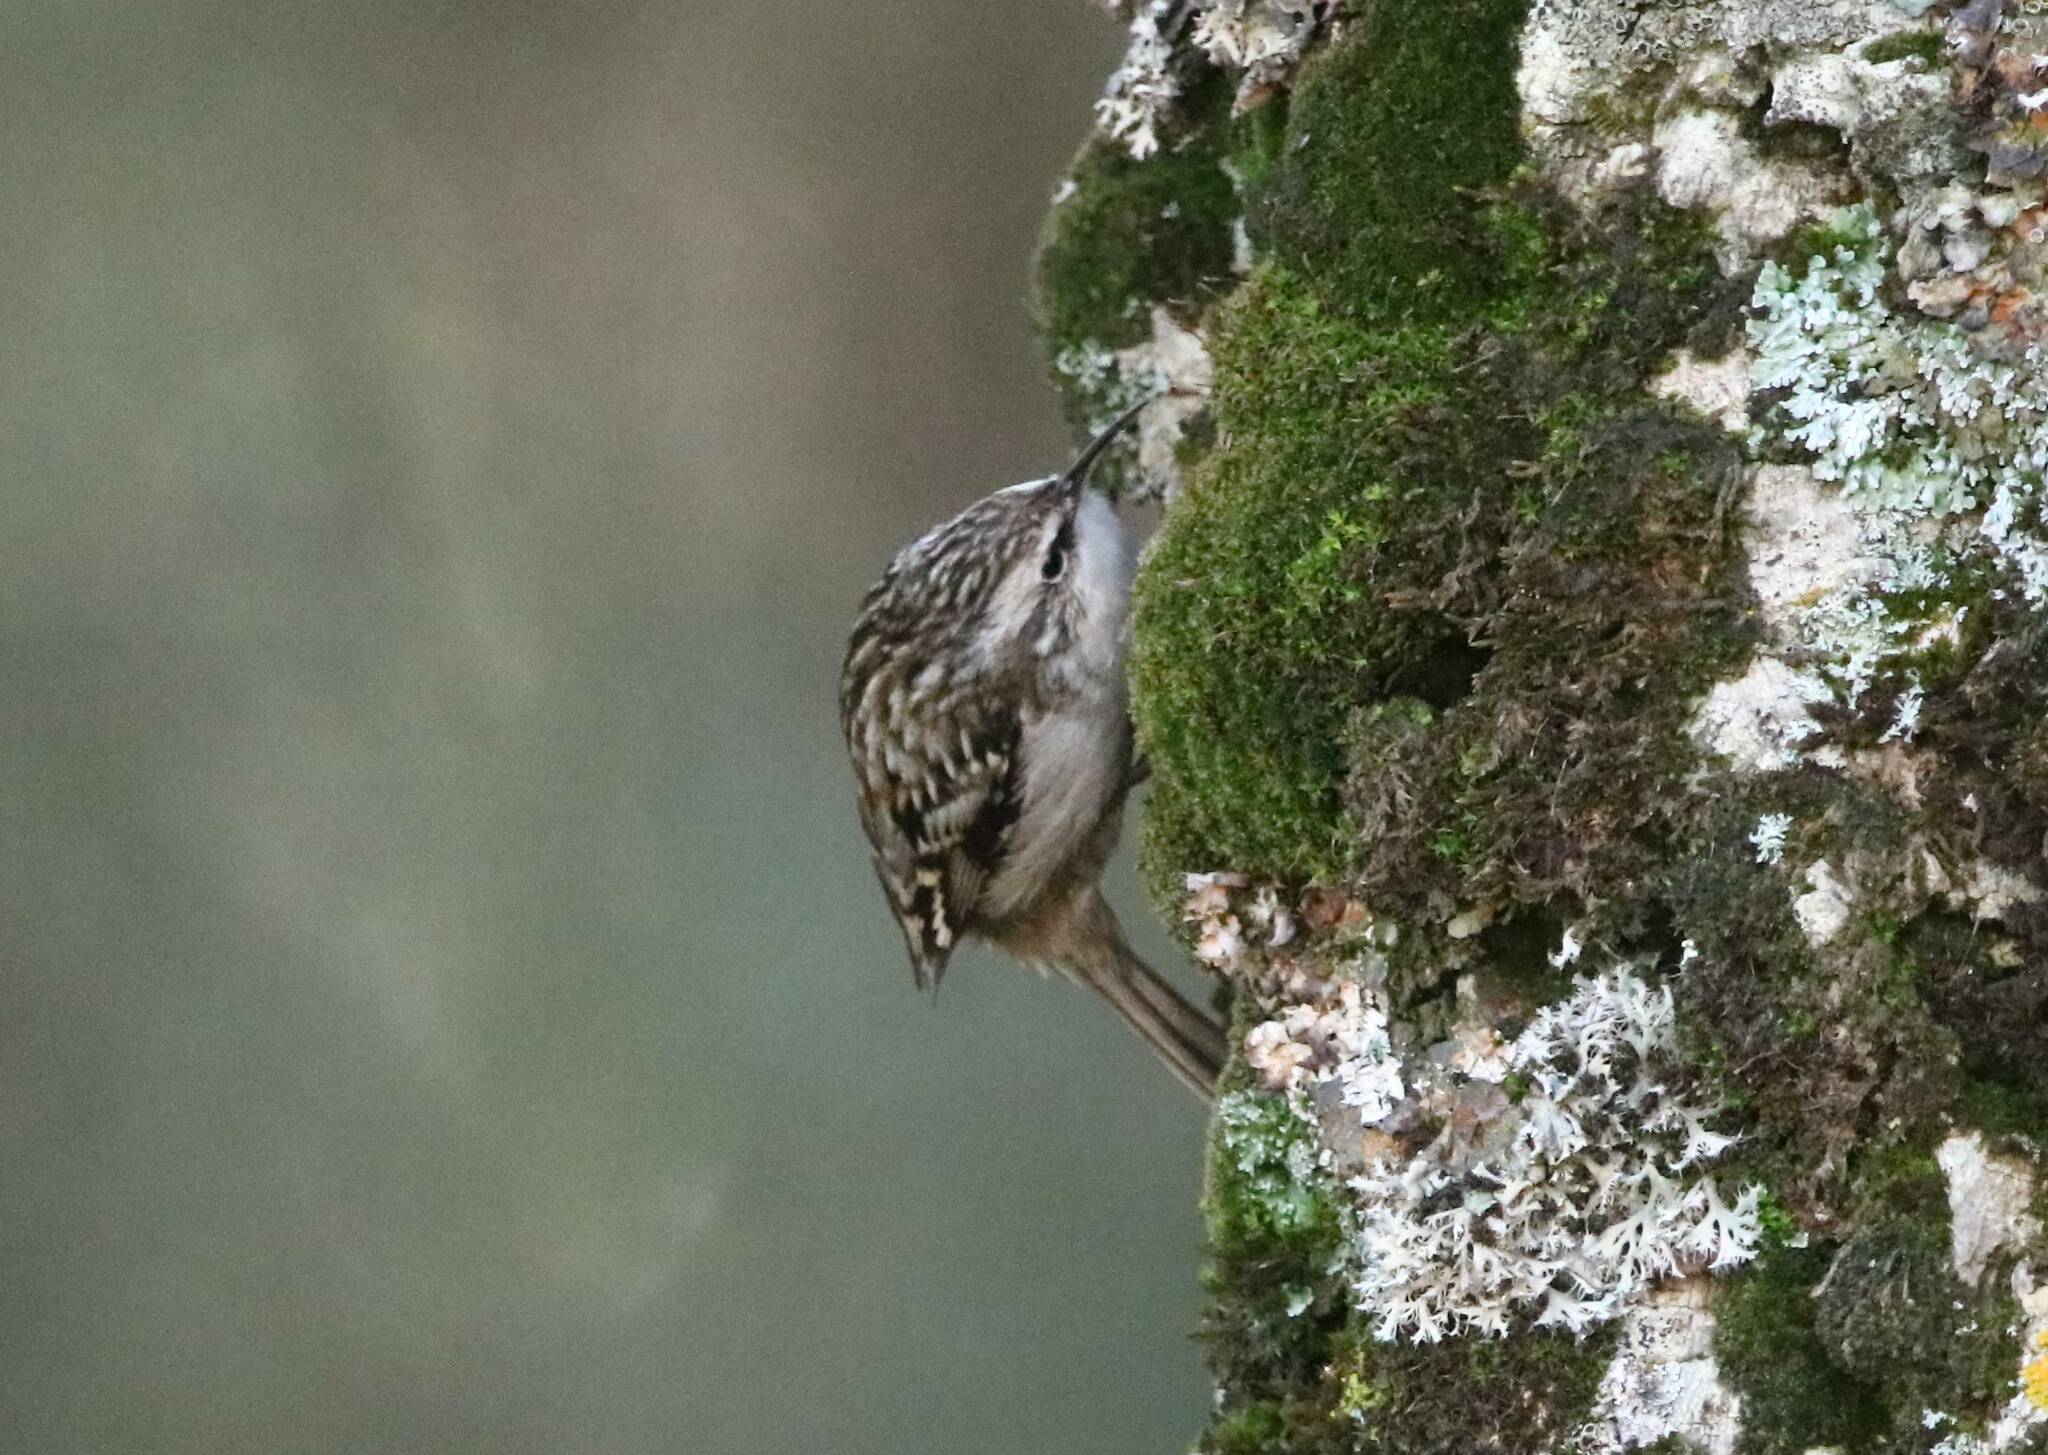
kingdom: Animalia
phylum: Chordata
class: Aves
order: Passeriformes
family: Certhiidae
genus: Certhia
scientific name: Certhia brachydactyla
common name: Short-toed treecreeper
